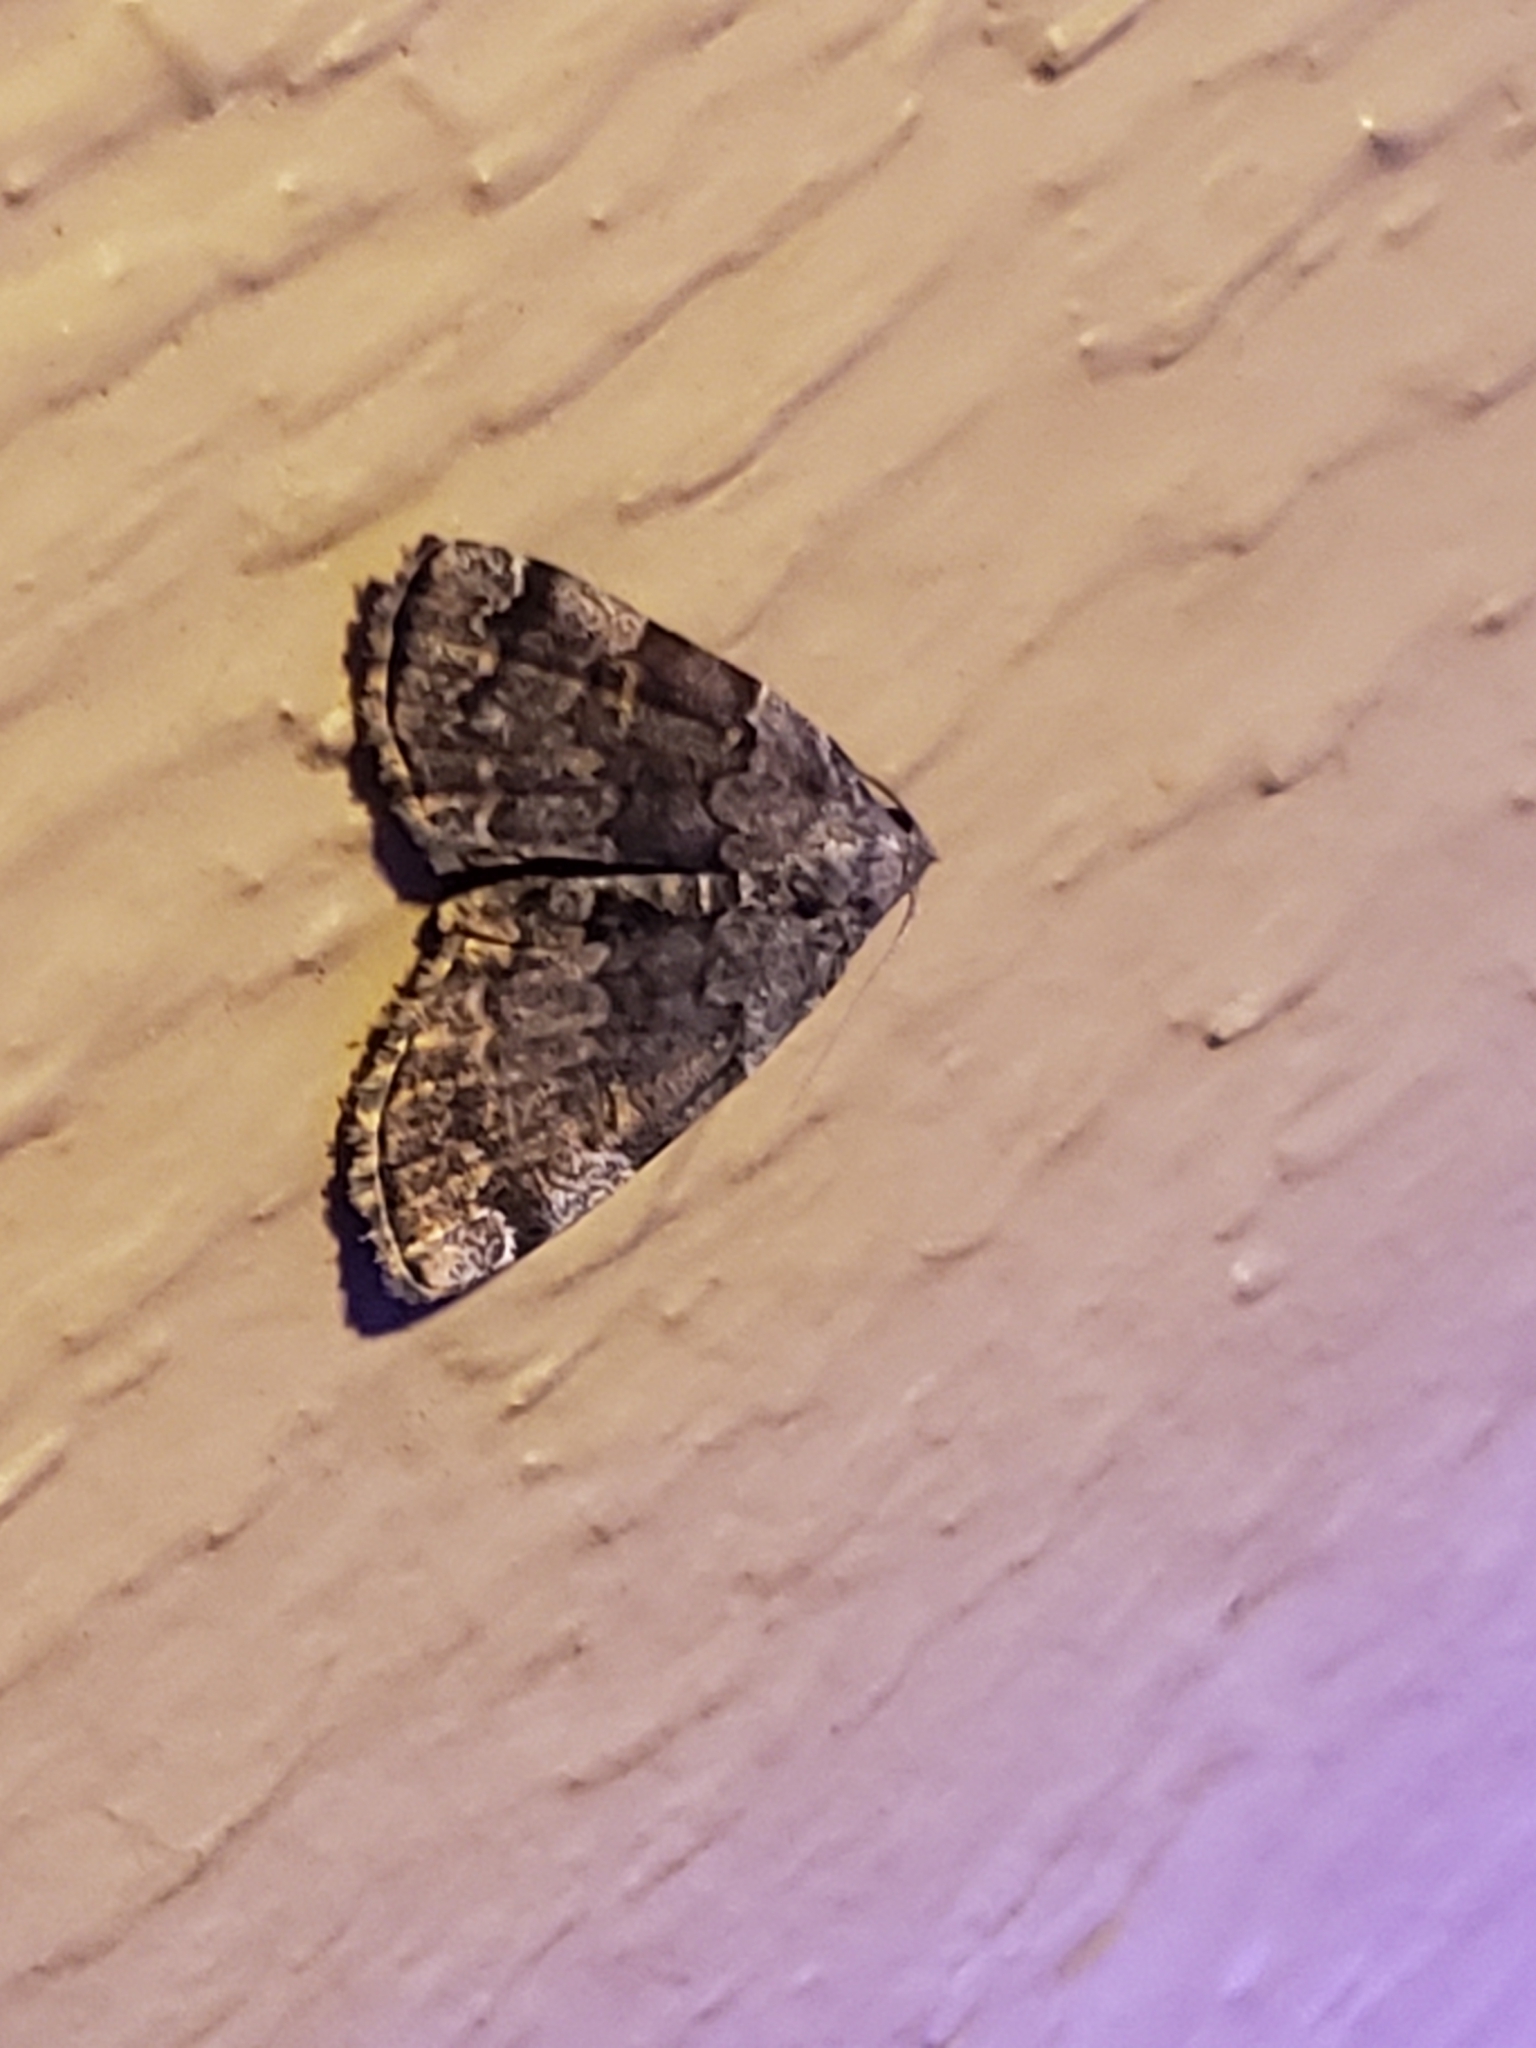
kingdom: Animalia
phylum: Arthropoda
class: Insecta
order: Lepidoptera
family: Erebidae
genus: Idia
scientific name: Idia americalis
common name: American idia moth
